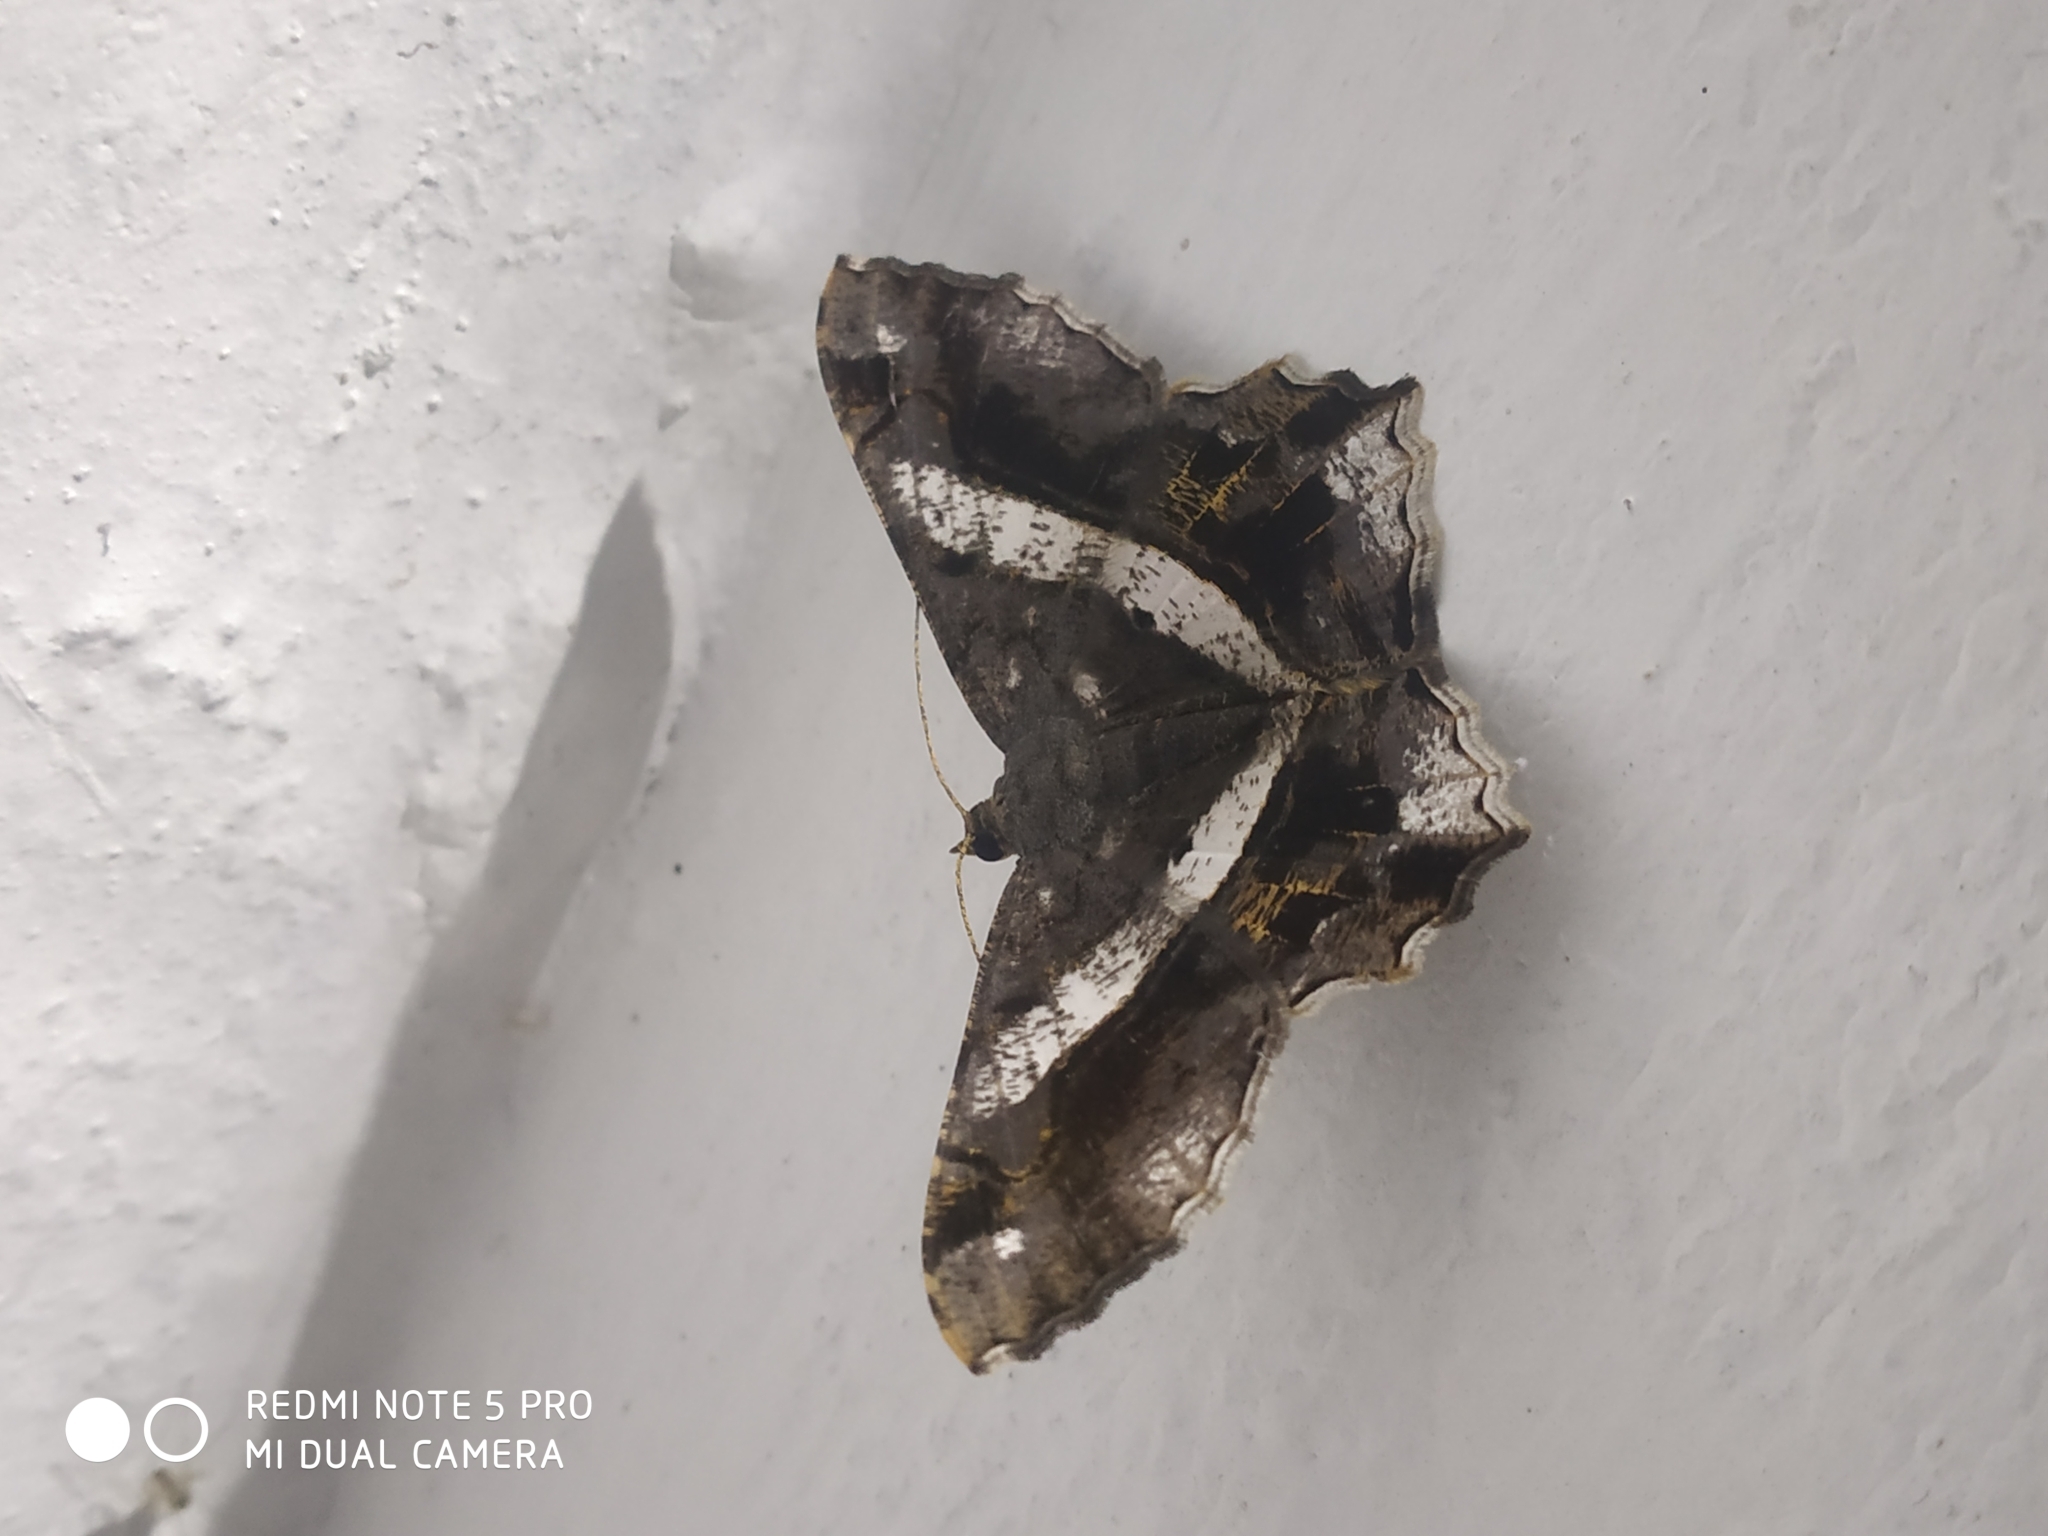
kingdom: Animalia
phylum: Arthropoda
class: Insecta
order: Lepidoptera
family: Geometridae
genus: Chiasmia
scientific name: Chiasmia nora
